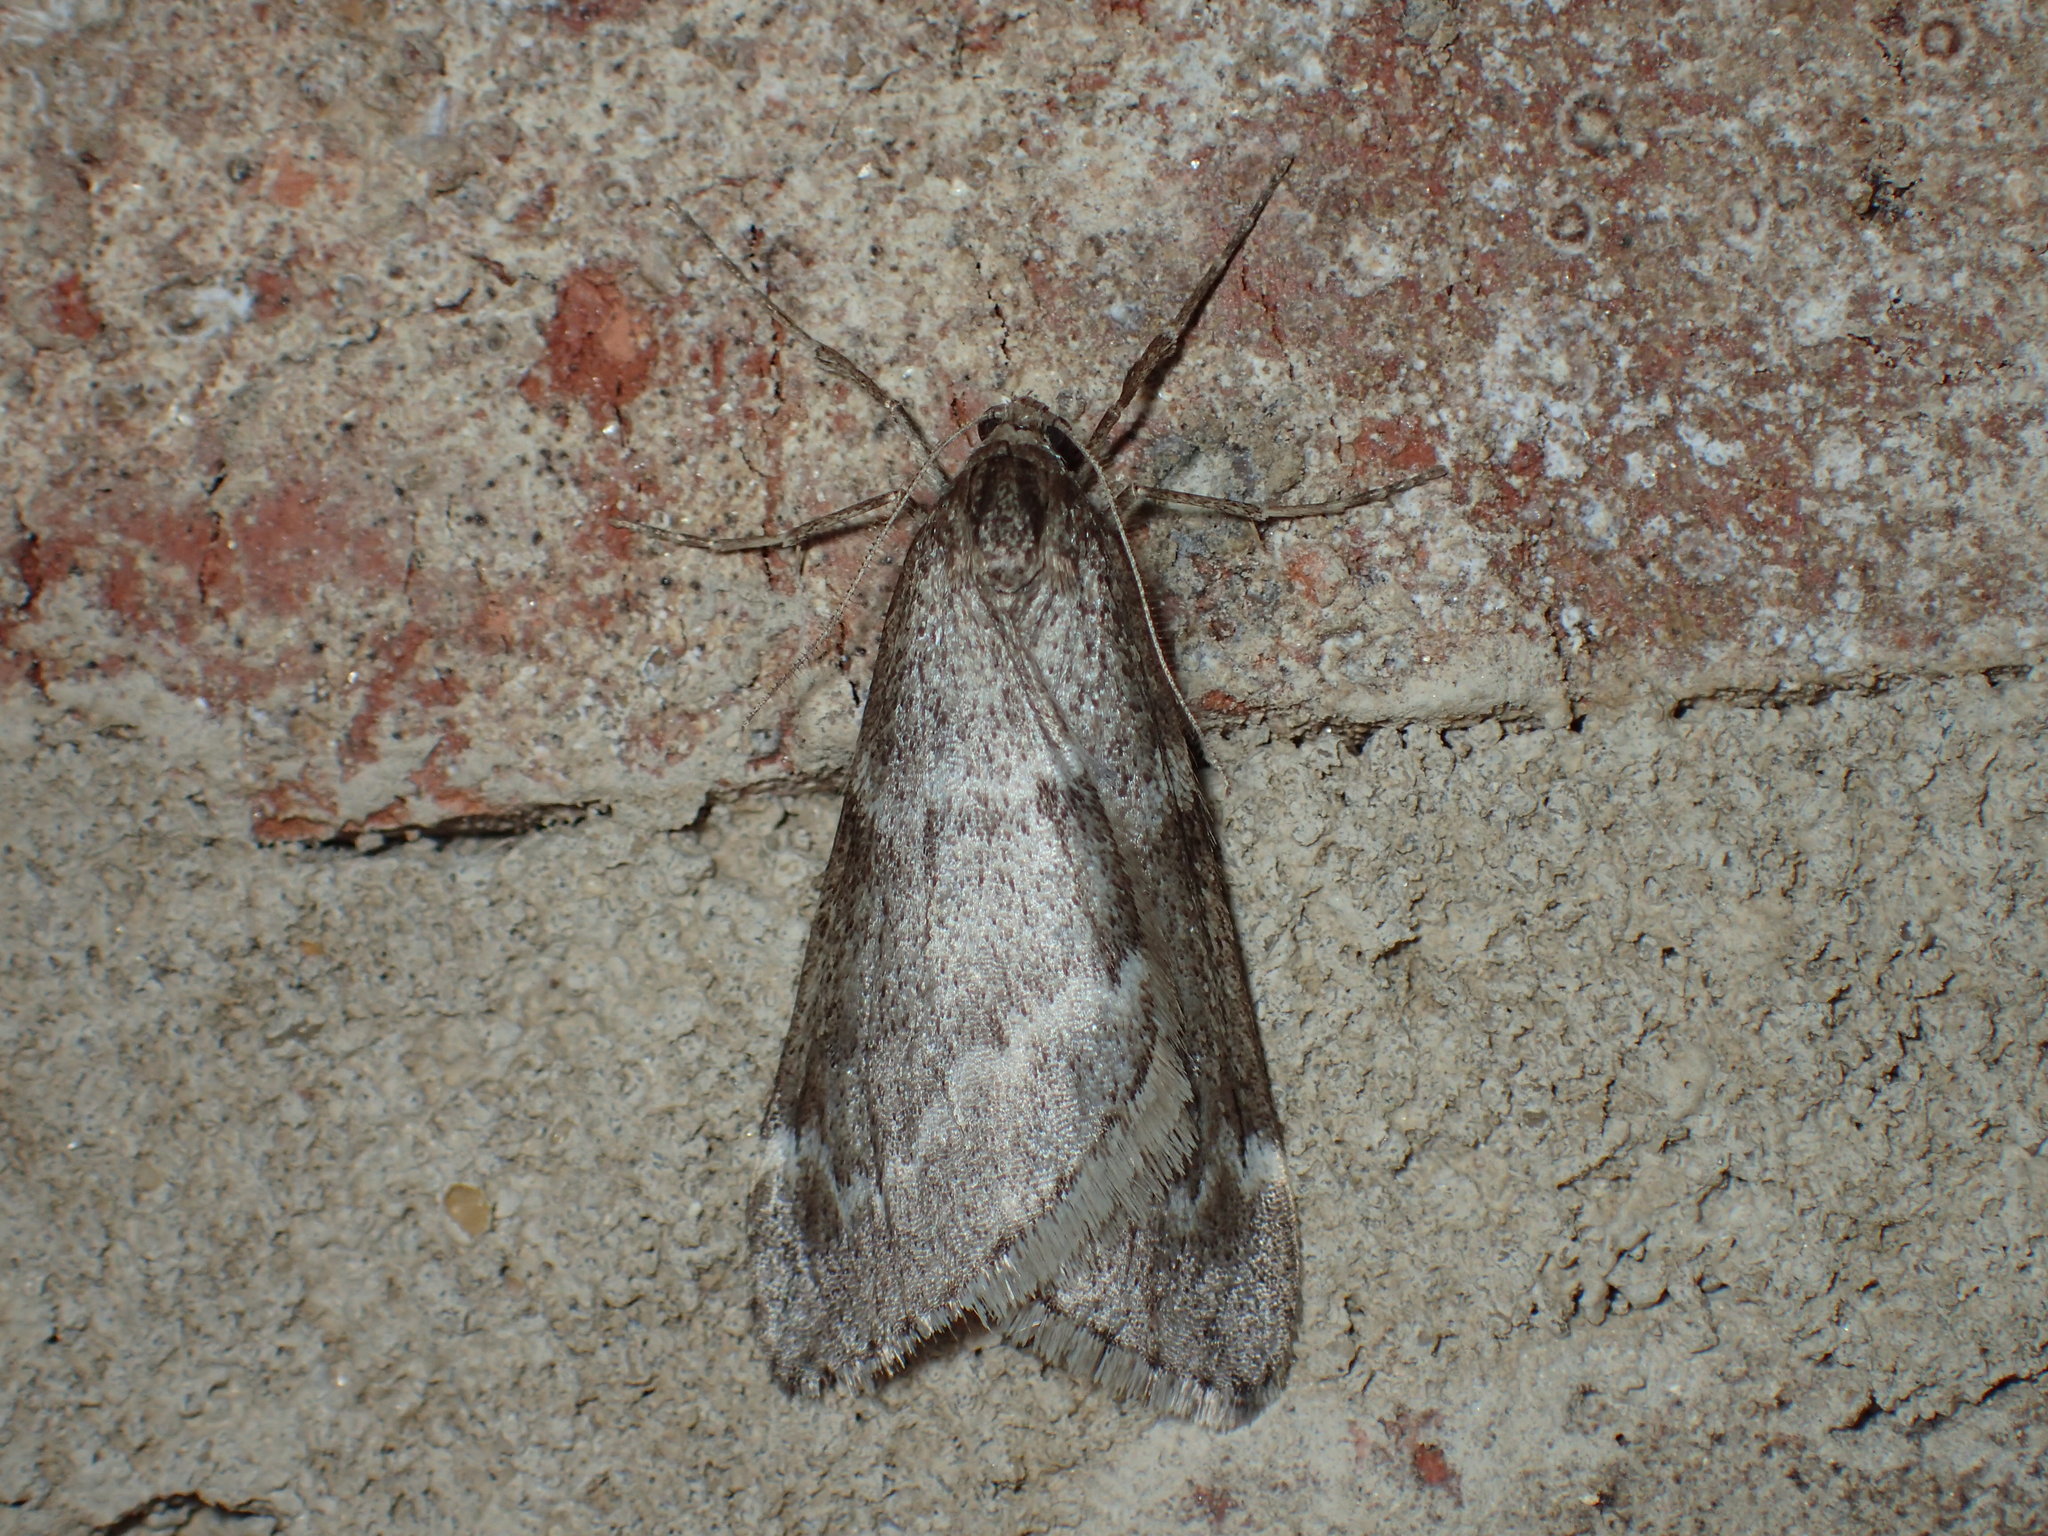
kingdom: Animalia
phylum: Arthropoda
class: Insecta
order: Lepidoptera
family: Geometridae
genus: Alsophila
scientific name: Alsophila pometaria
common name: Fall cankerworm
